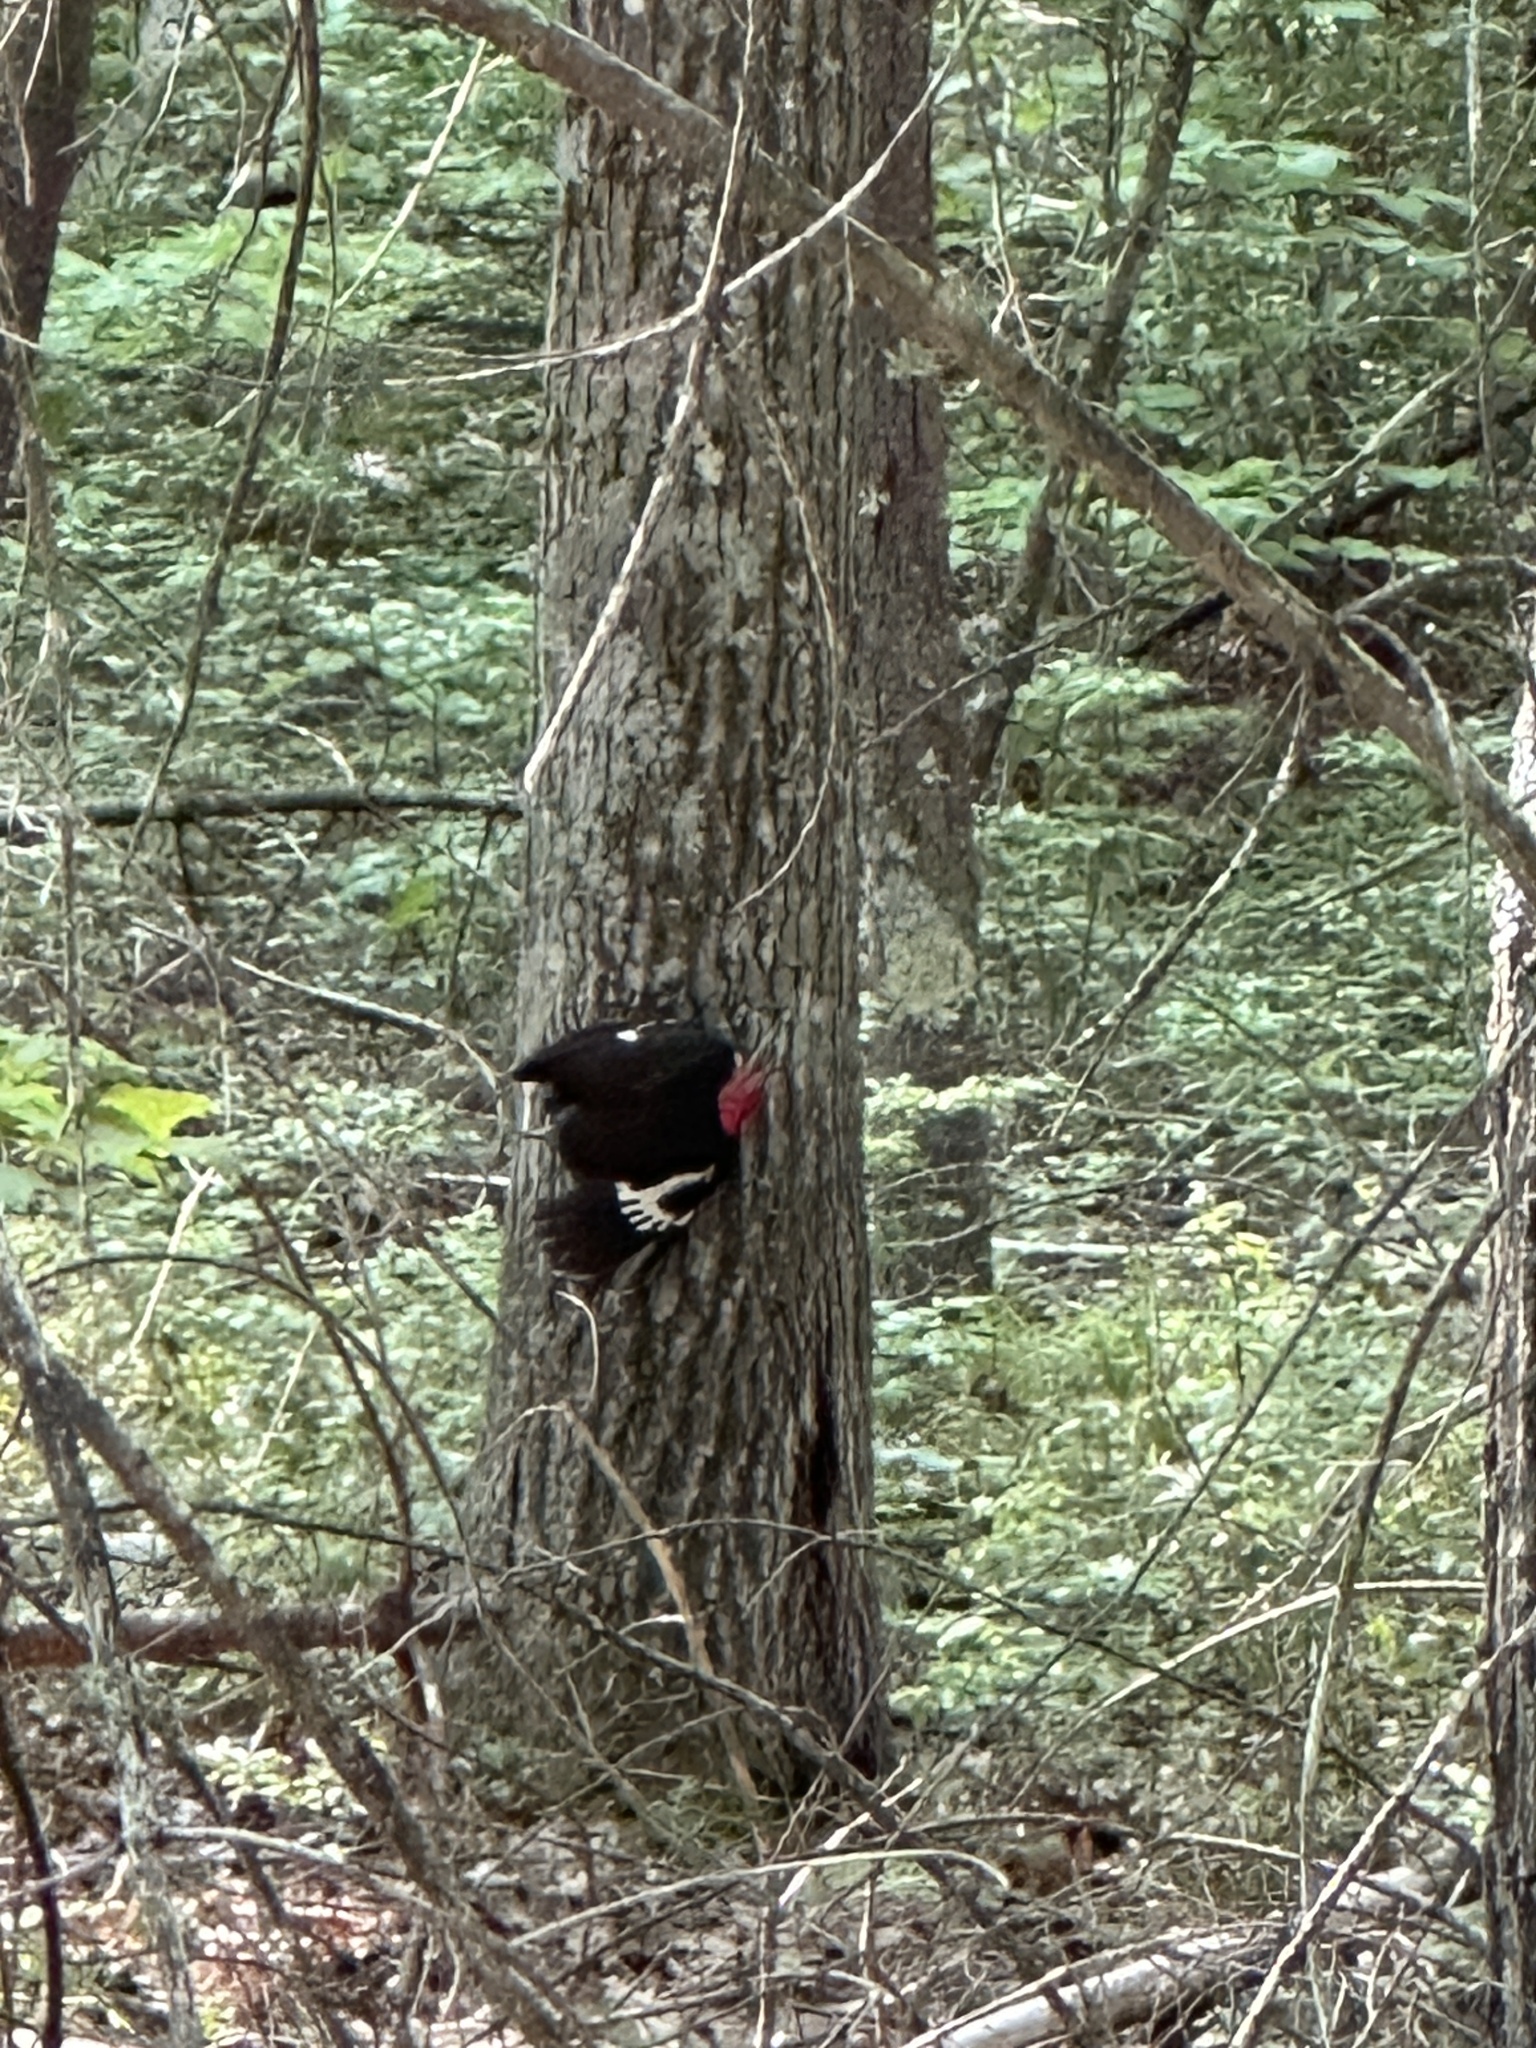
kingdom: Animalia
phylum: Chordata
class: Aves
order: Piciformes
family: Picidae
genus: Dryocopus
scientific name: Dryocopus pileatus
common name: Pileated woodpecker
